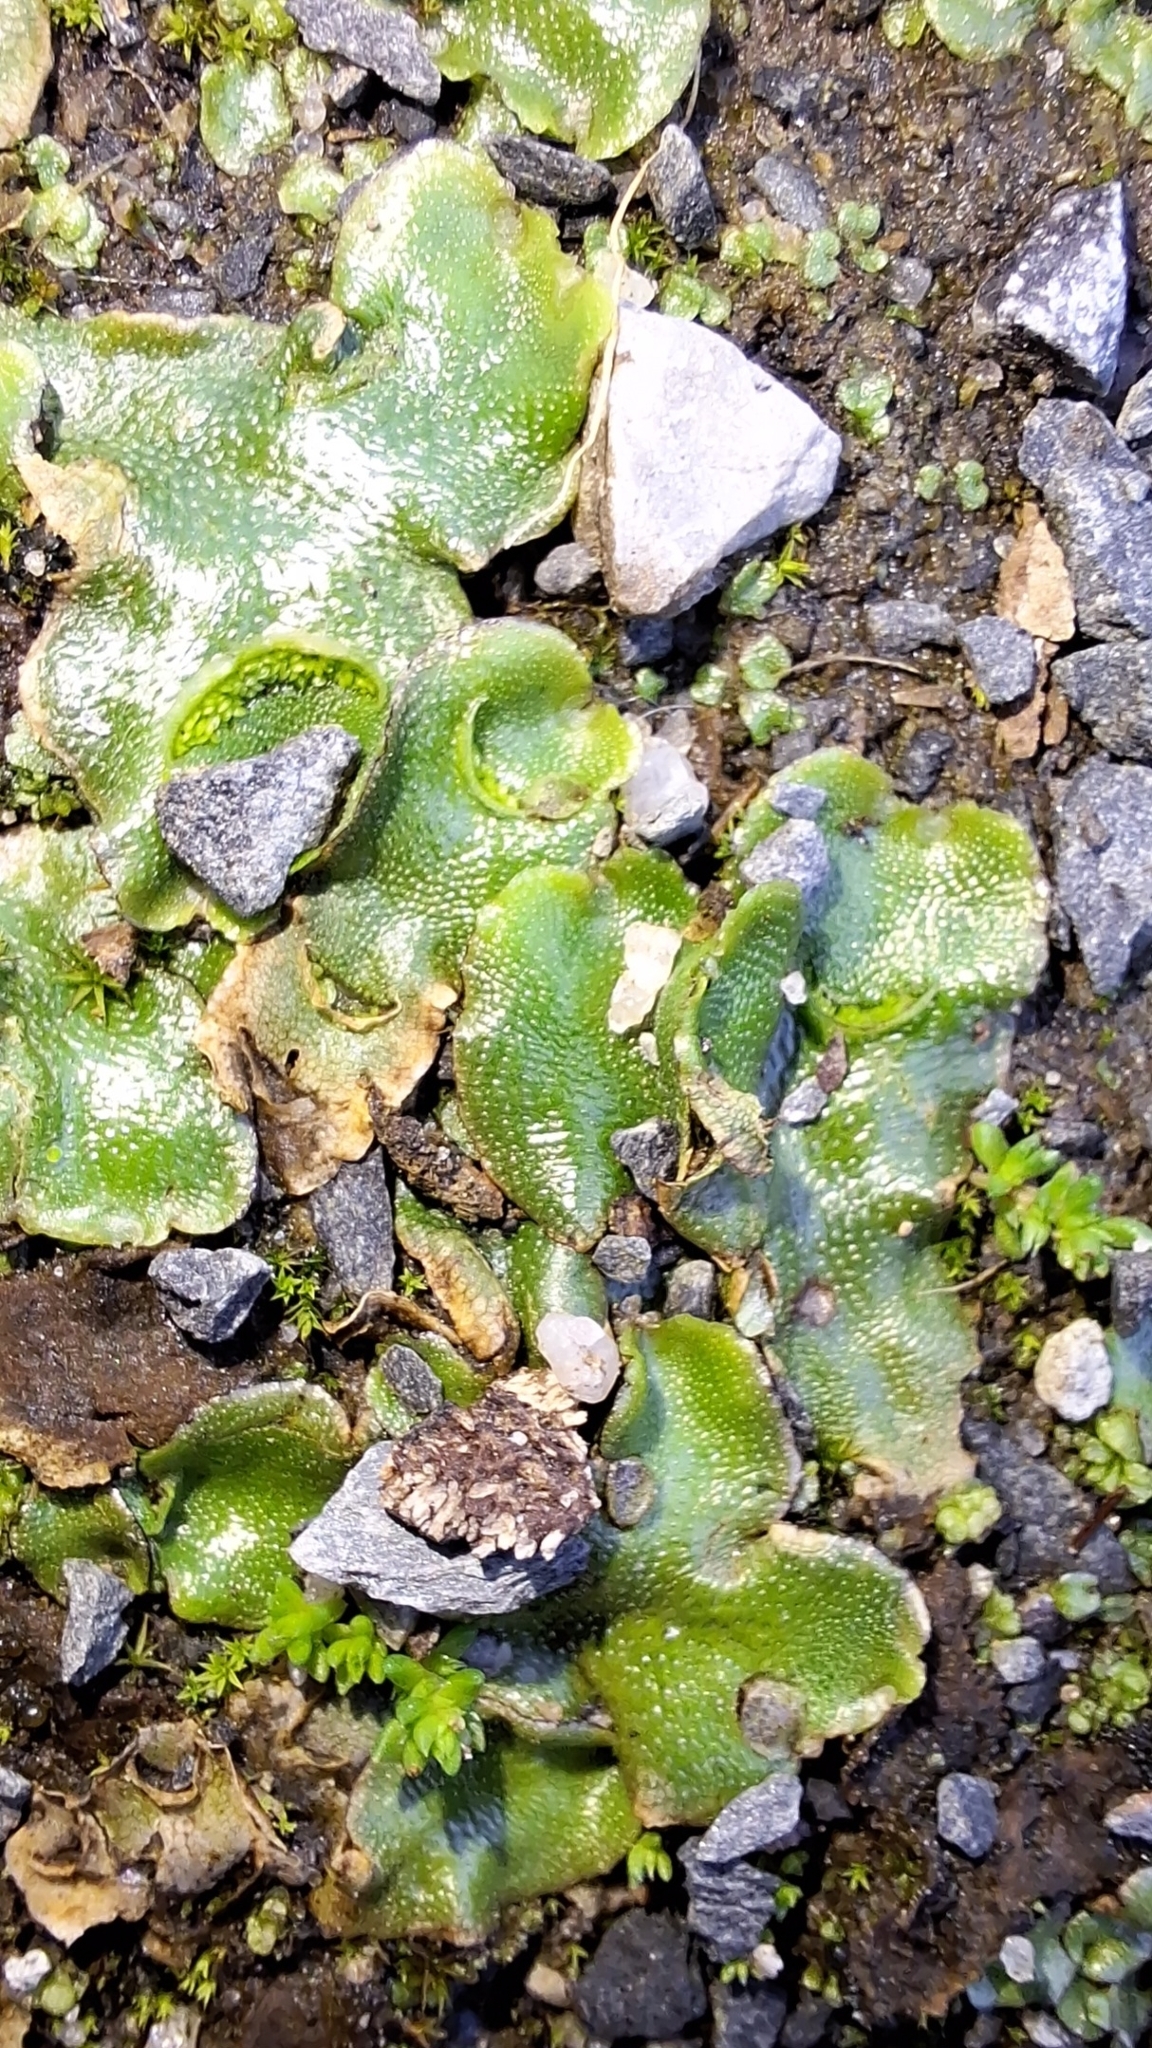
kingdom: Plantae
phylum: Marchantiophyta
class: Marchantiopsida
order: Lunulariales
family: Lunulariaceae
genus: Lunularia
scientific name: Lunularia cruciata
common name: Crescent-cup liverwort
